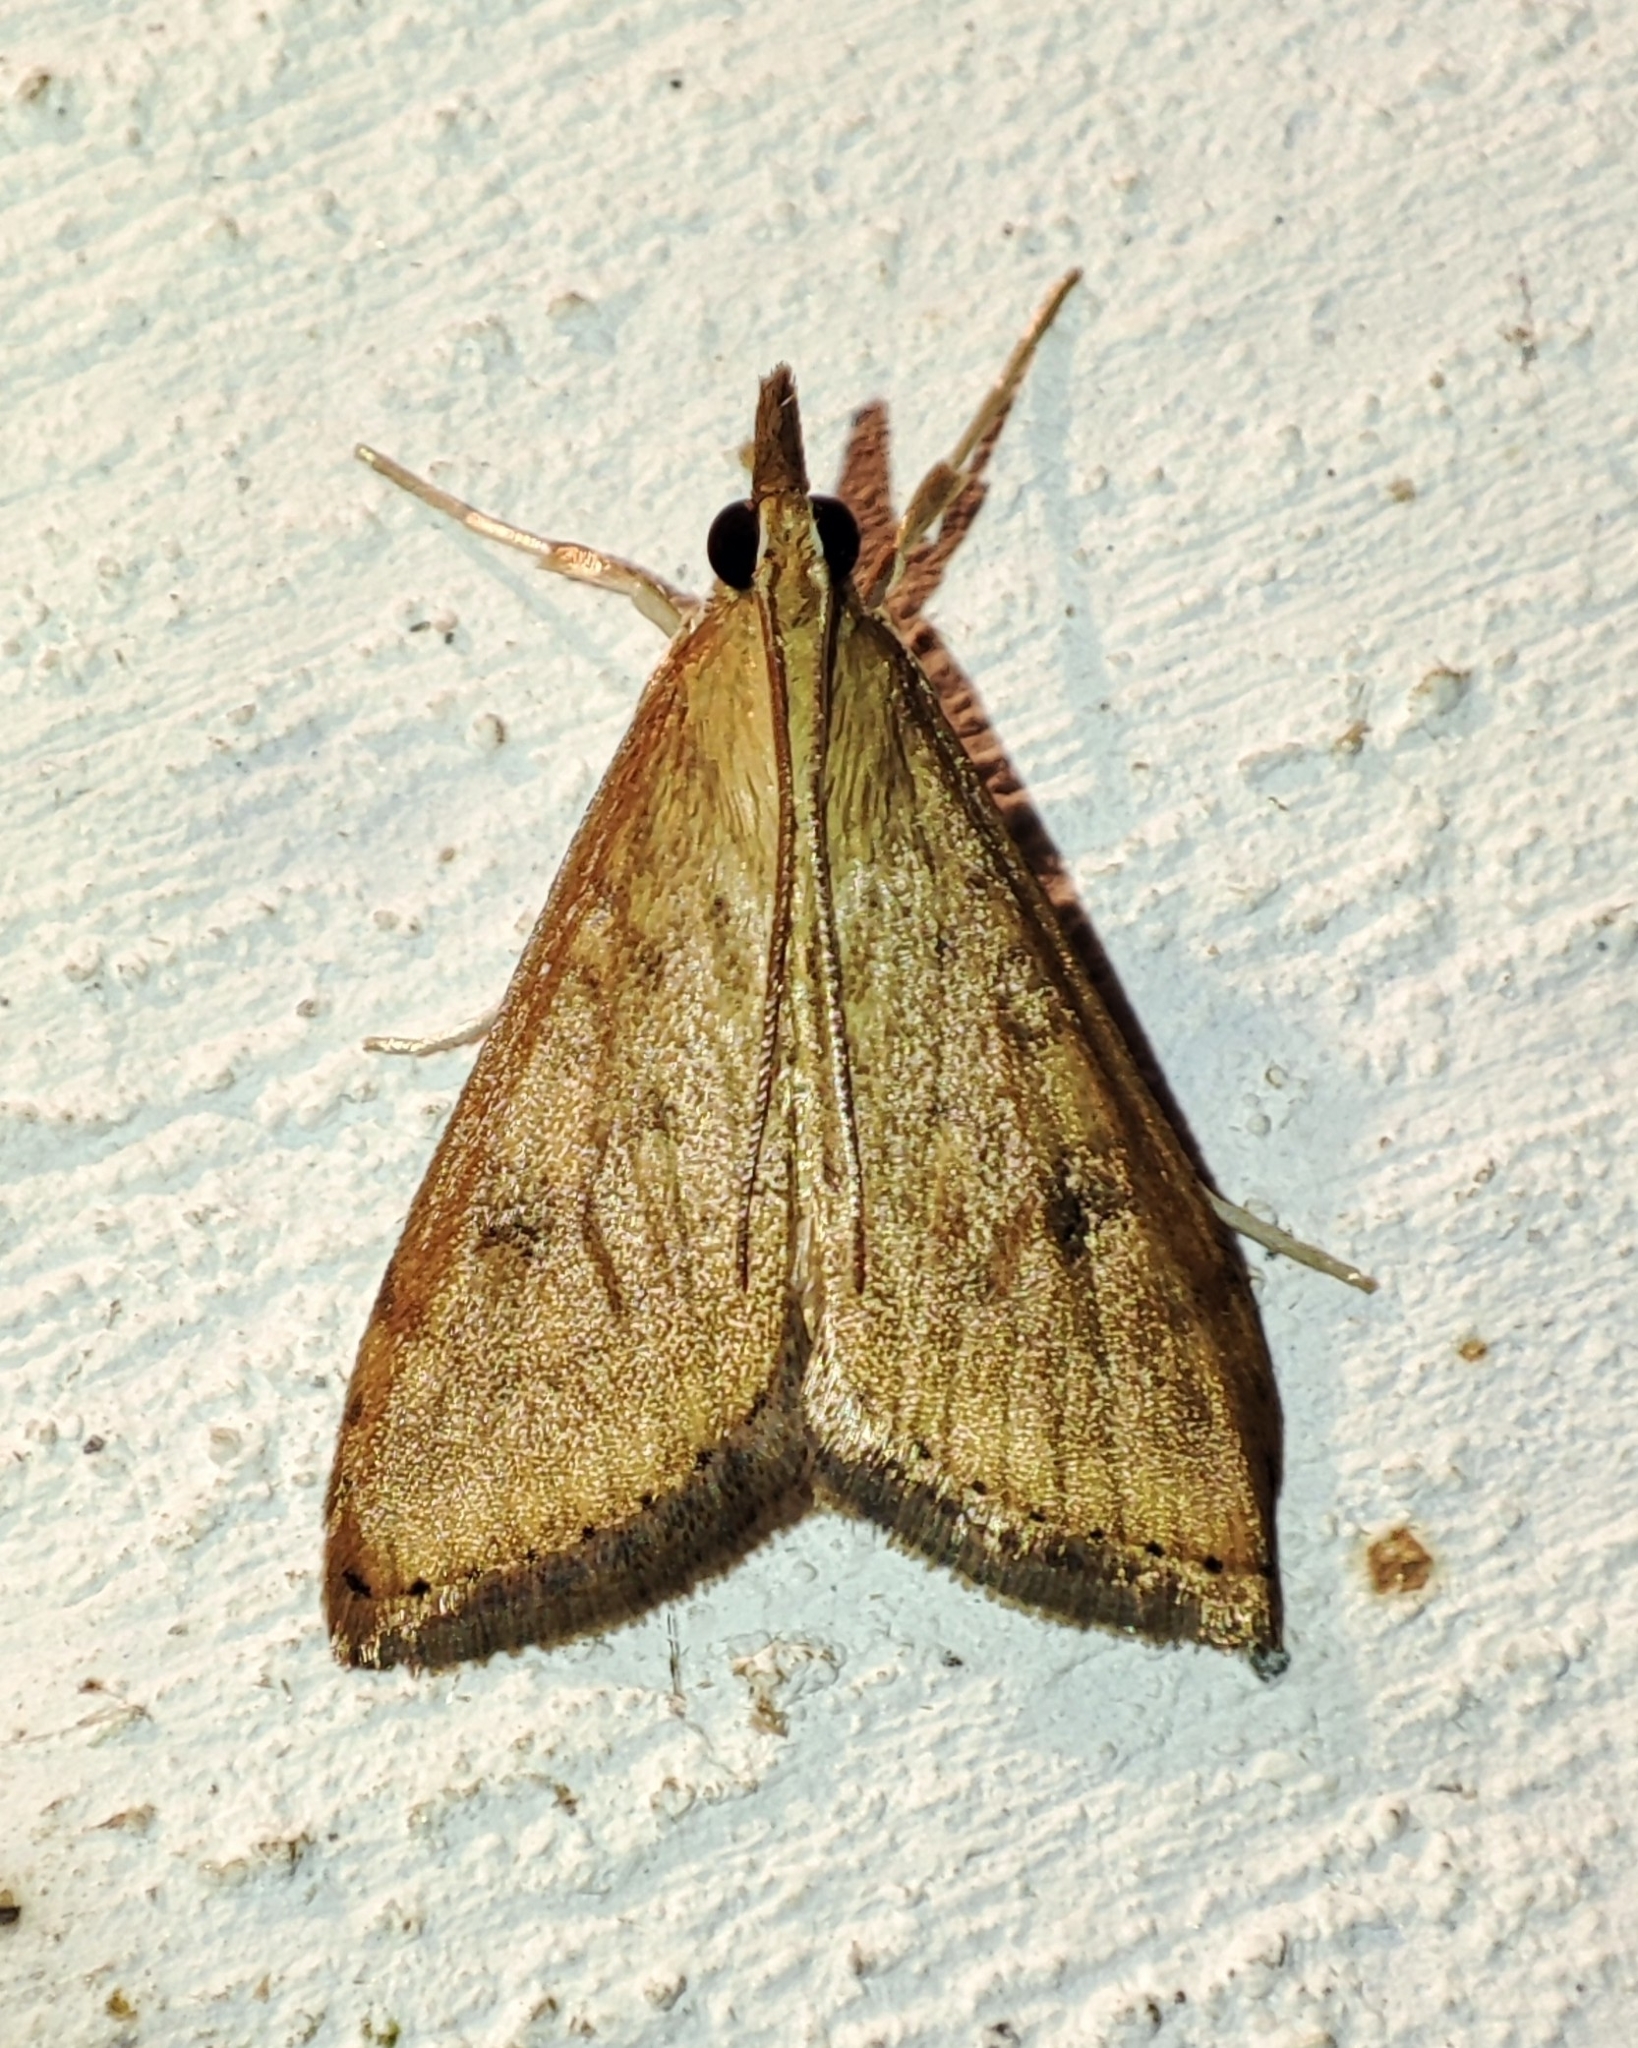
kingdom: Animalia
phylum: Arthropoda
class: Insecta
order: Lepidoptera
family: Crambidae
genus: Udea
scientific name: Udea ferrugalis
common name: Rusty dot
